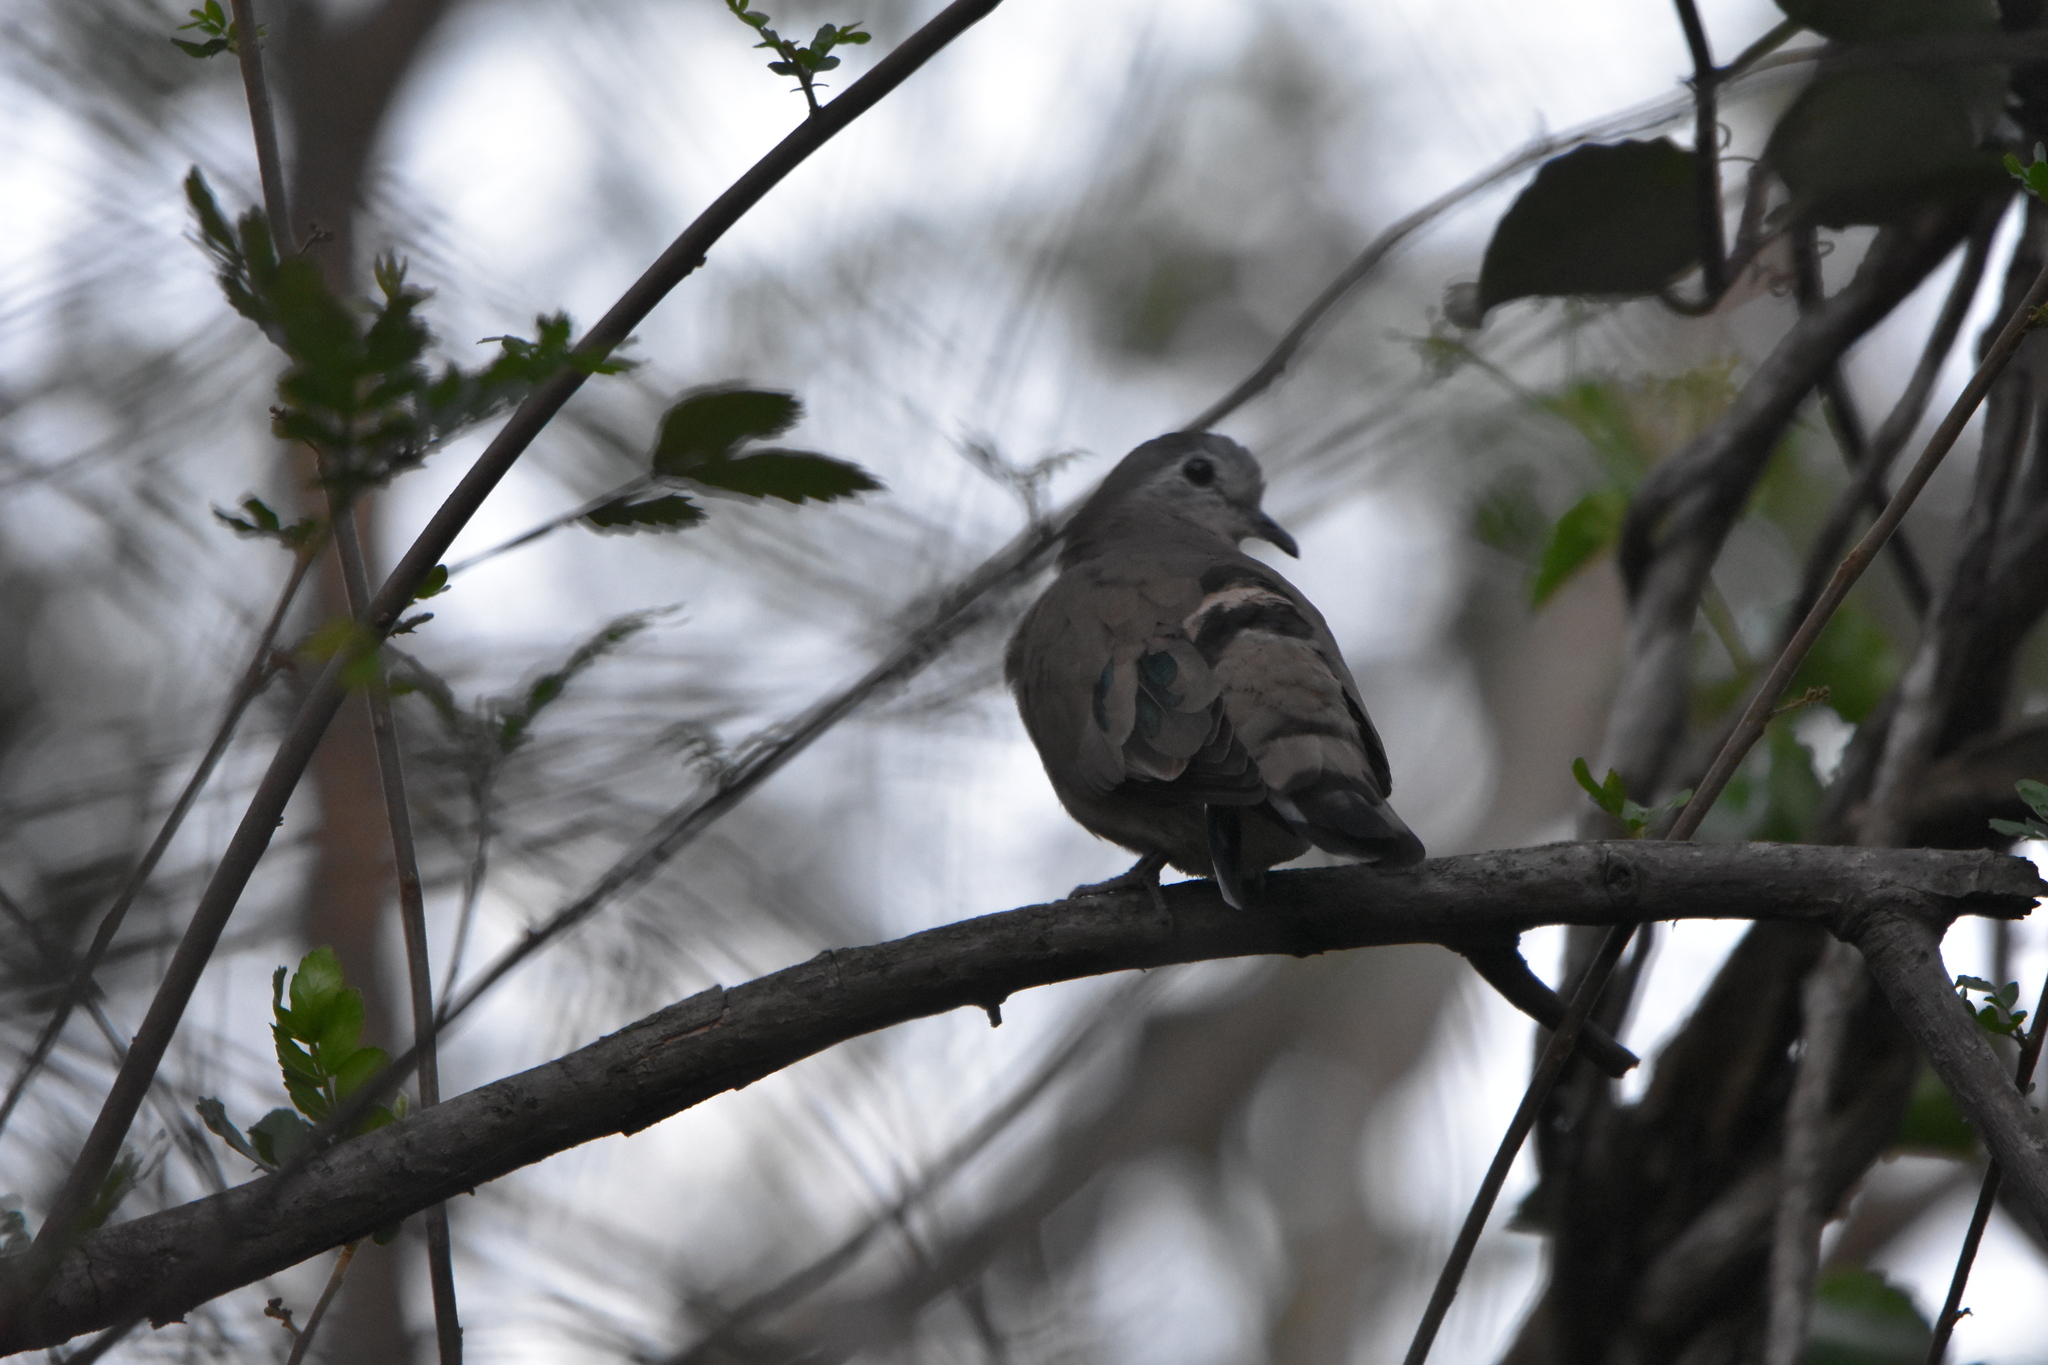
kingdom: Animalia
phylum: Chordata
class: Aves
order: Columbiformes
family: Columbidae
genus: Turtur
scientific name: Turtur chalcospilos
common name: Emerald-spotted wood dove
